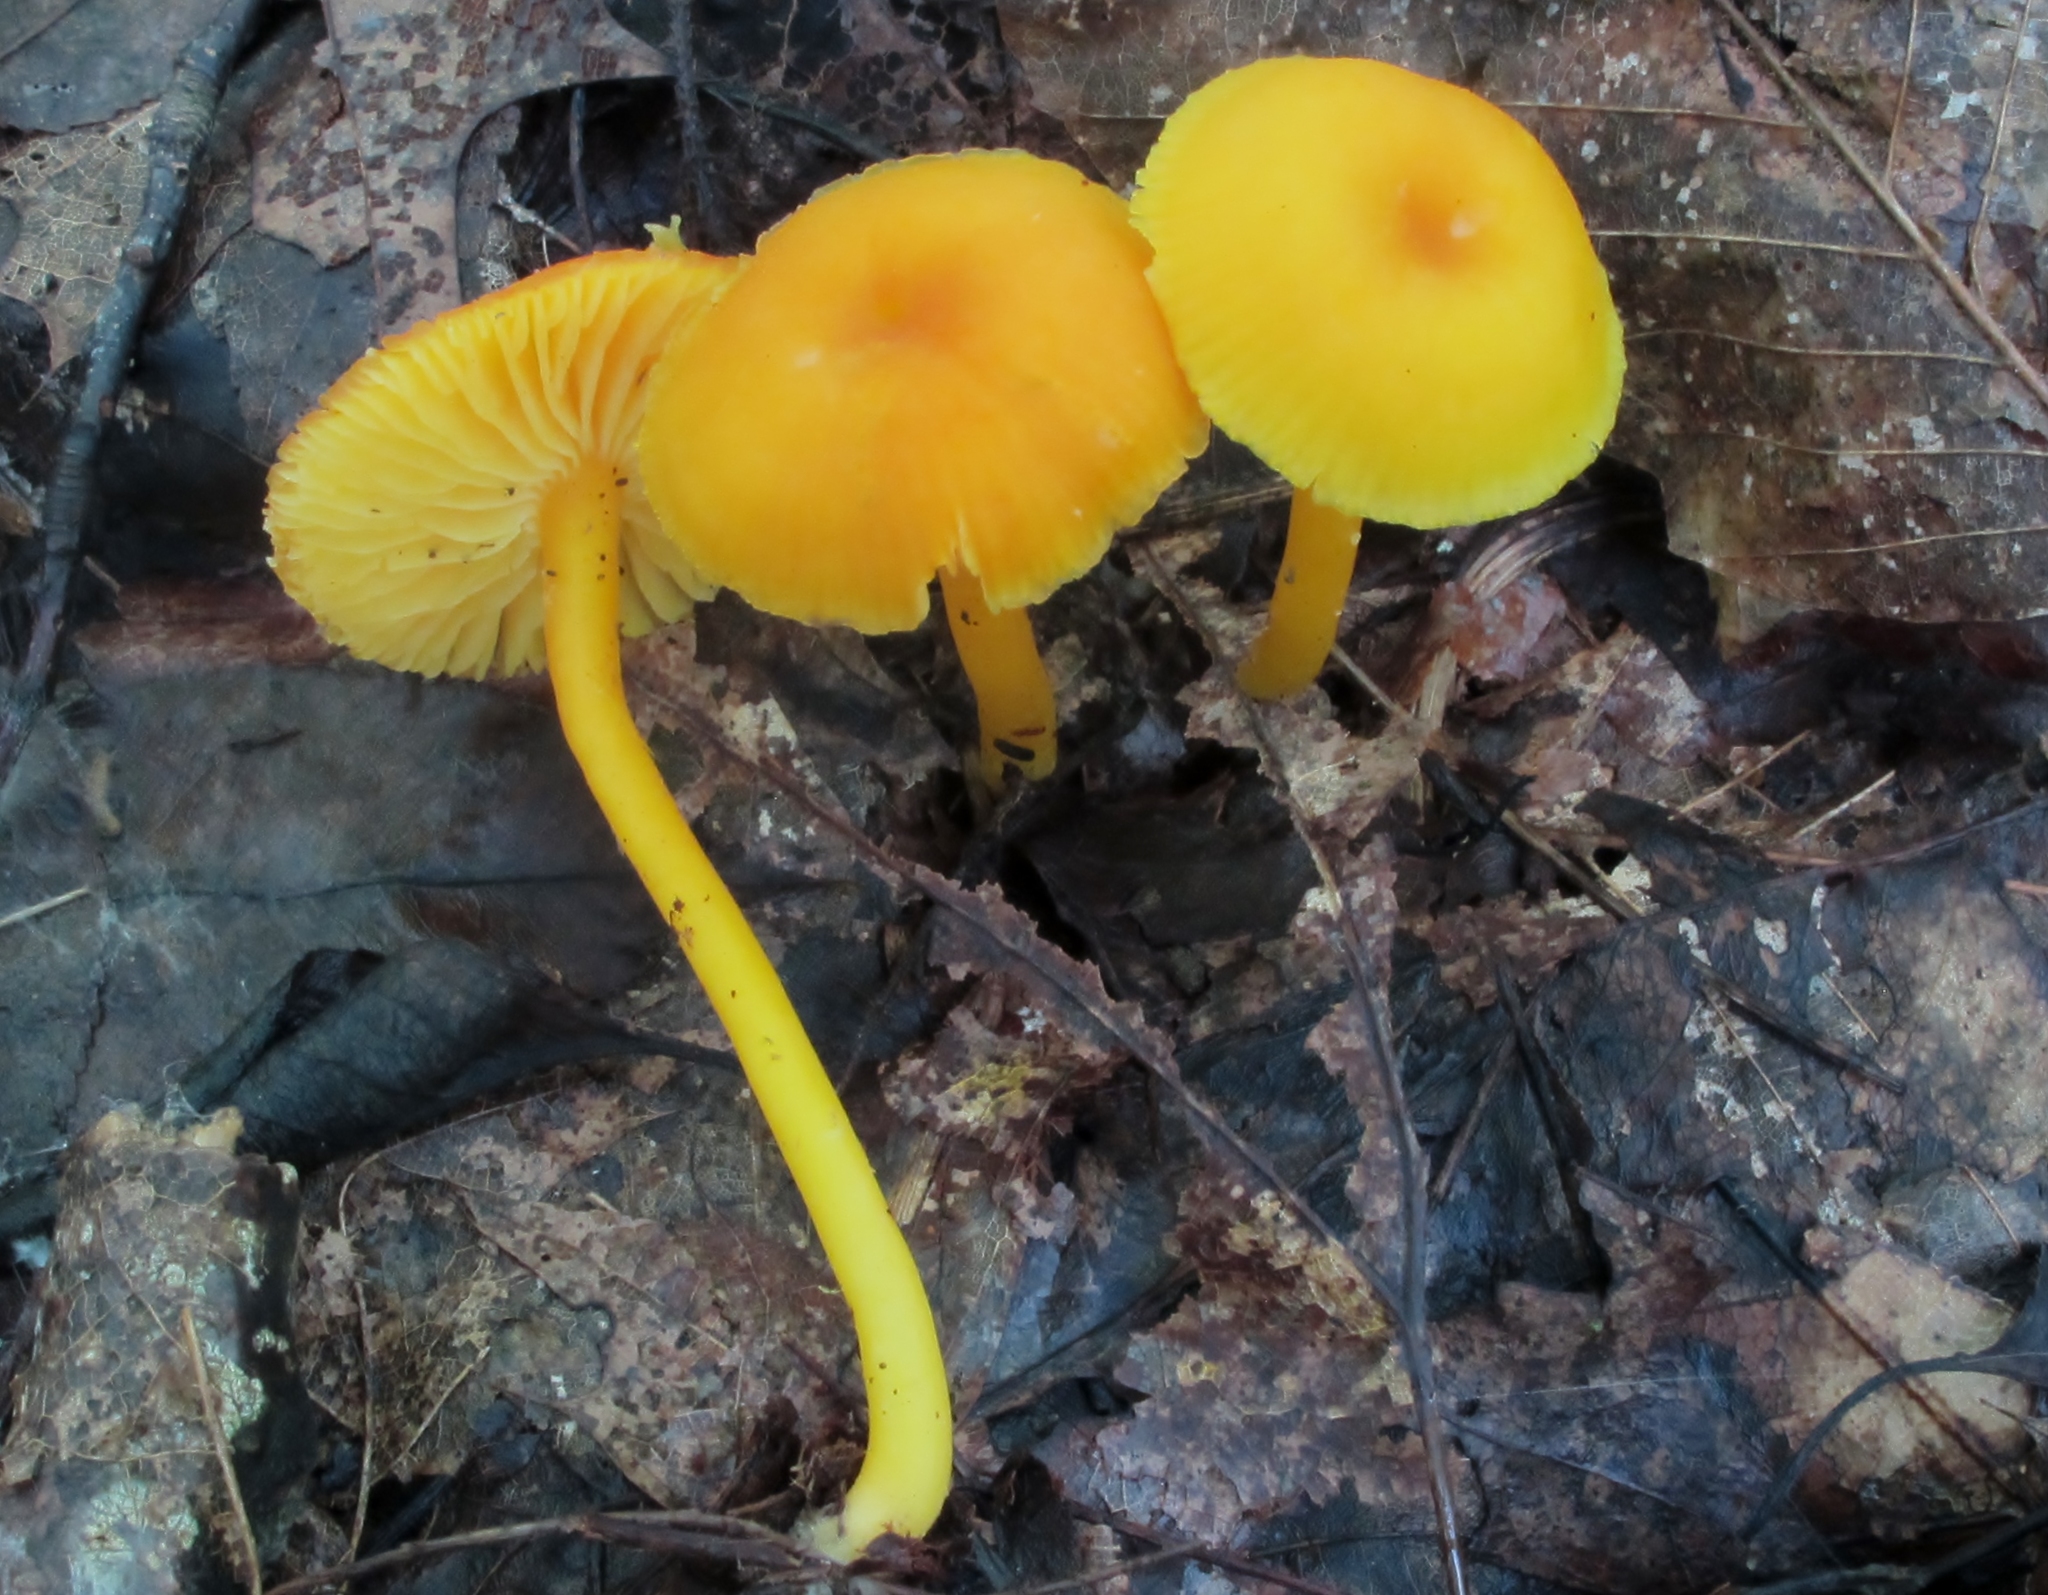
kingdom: Fungi
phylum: Basidiomycota
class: Agaricomycetes
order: Agaricales
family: Hygrophoraceae
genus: Hygrocybe
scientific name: Hygrocybe flavescens
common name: Golden waxy cap
